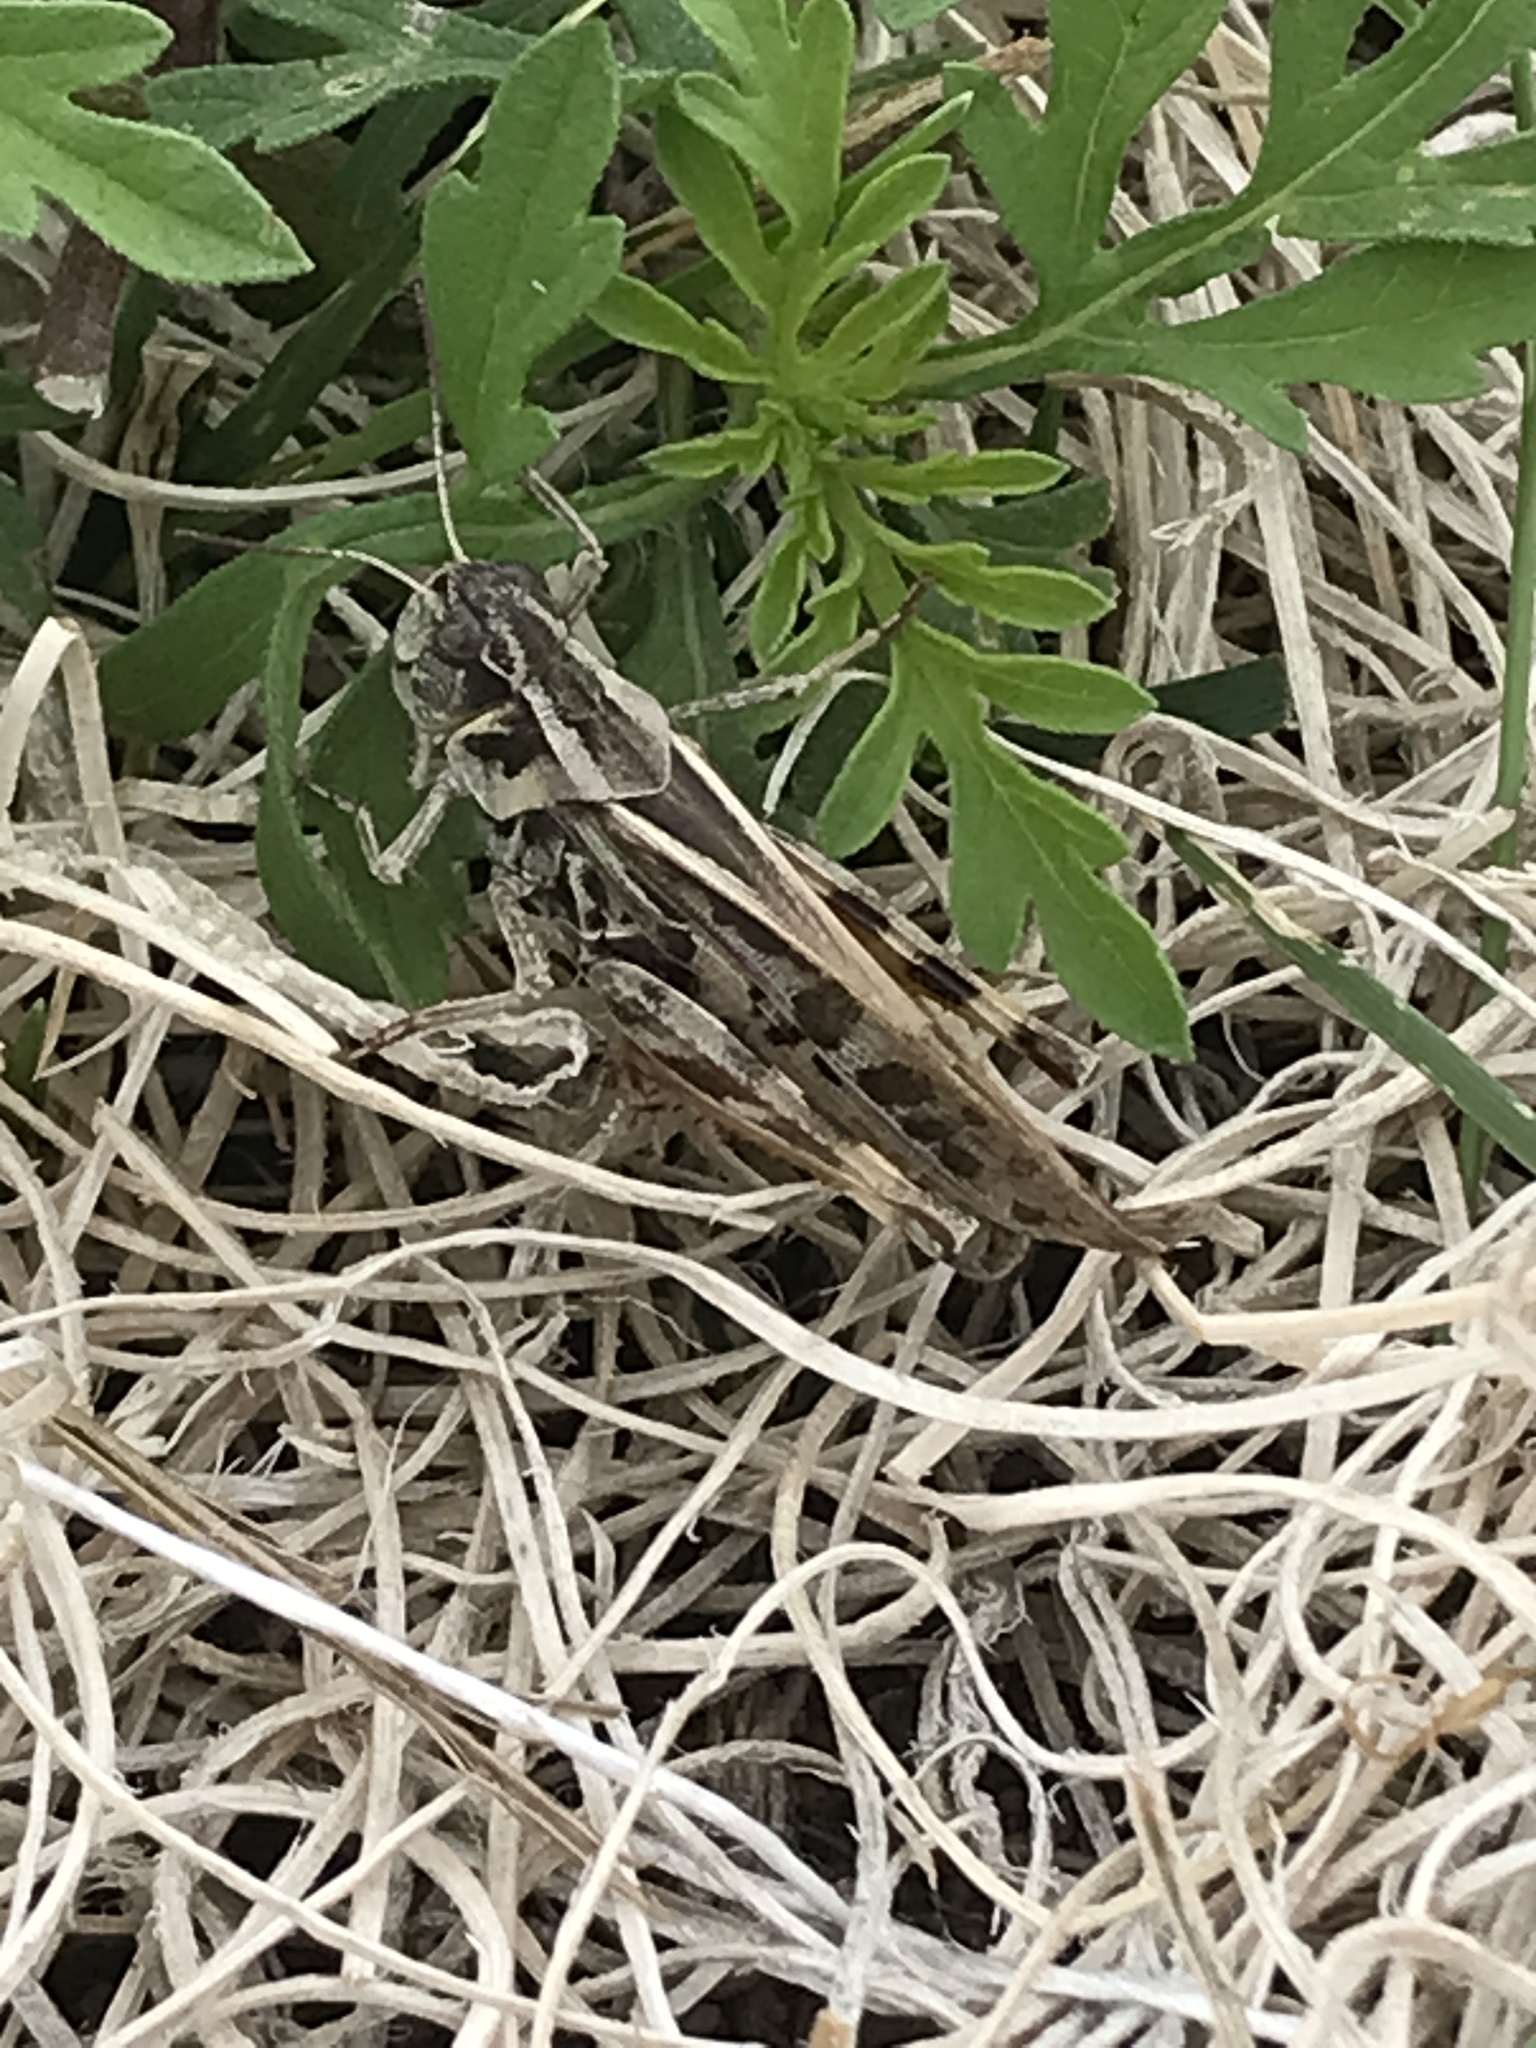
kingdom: Animalia
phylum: Arthropoda
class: Insecta
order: Orthoptera
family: Acrididae
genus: Camnula
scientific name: Camnula pellucida
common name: Clear-winged grasshopper
